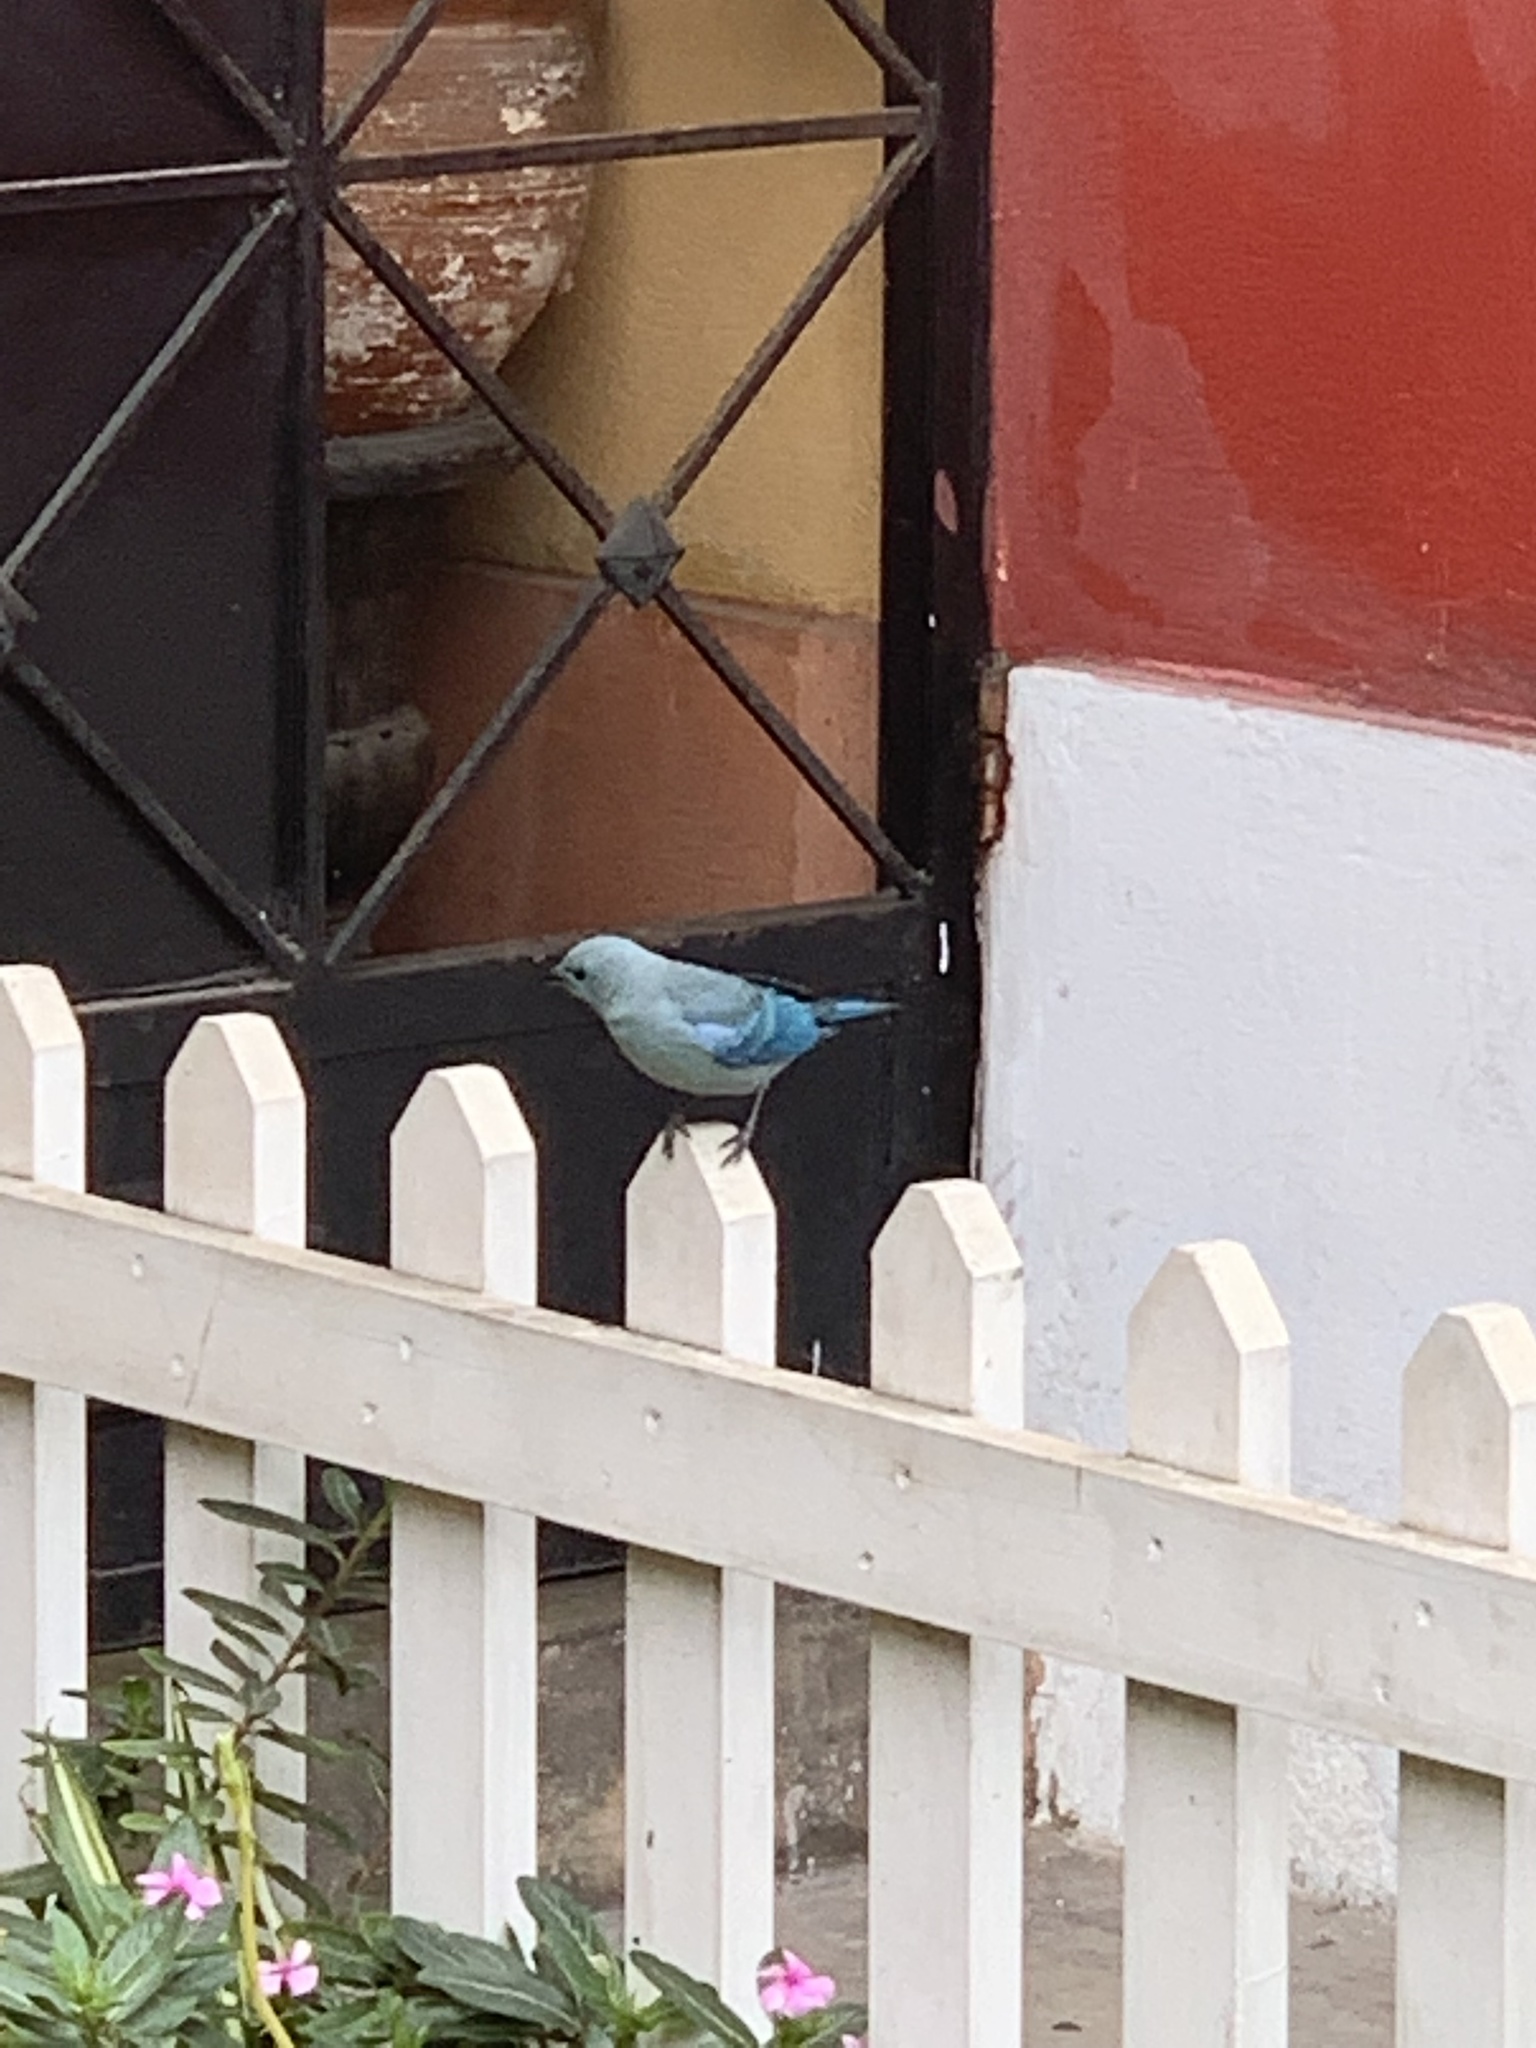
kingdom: Animalia
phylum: Chordata
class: Aves
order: Passeriformes
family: Thraupidae
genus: Thraupis
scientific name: Thraupis episcopus
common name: Blue-grey tanager
